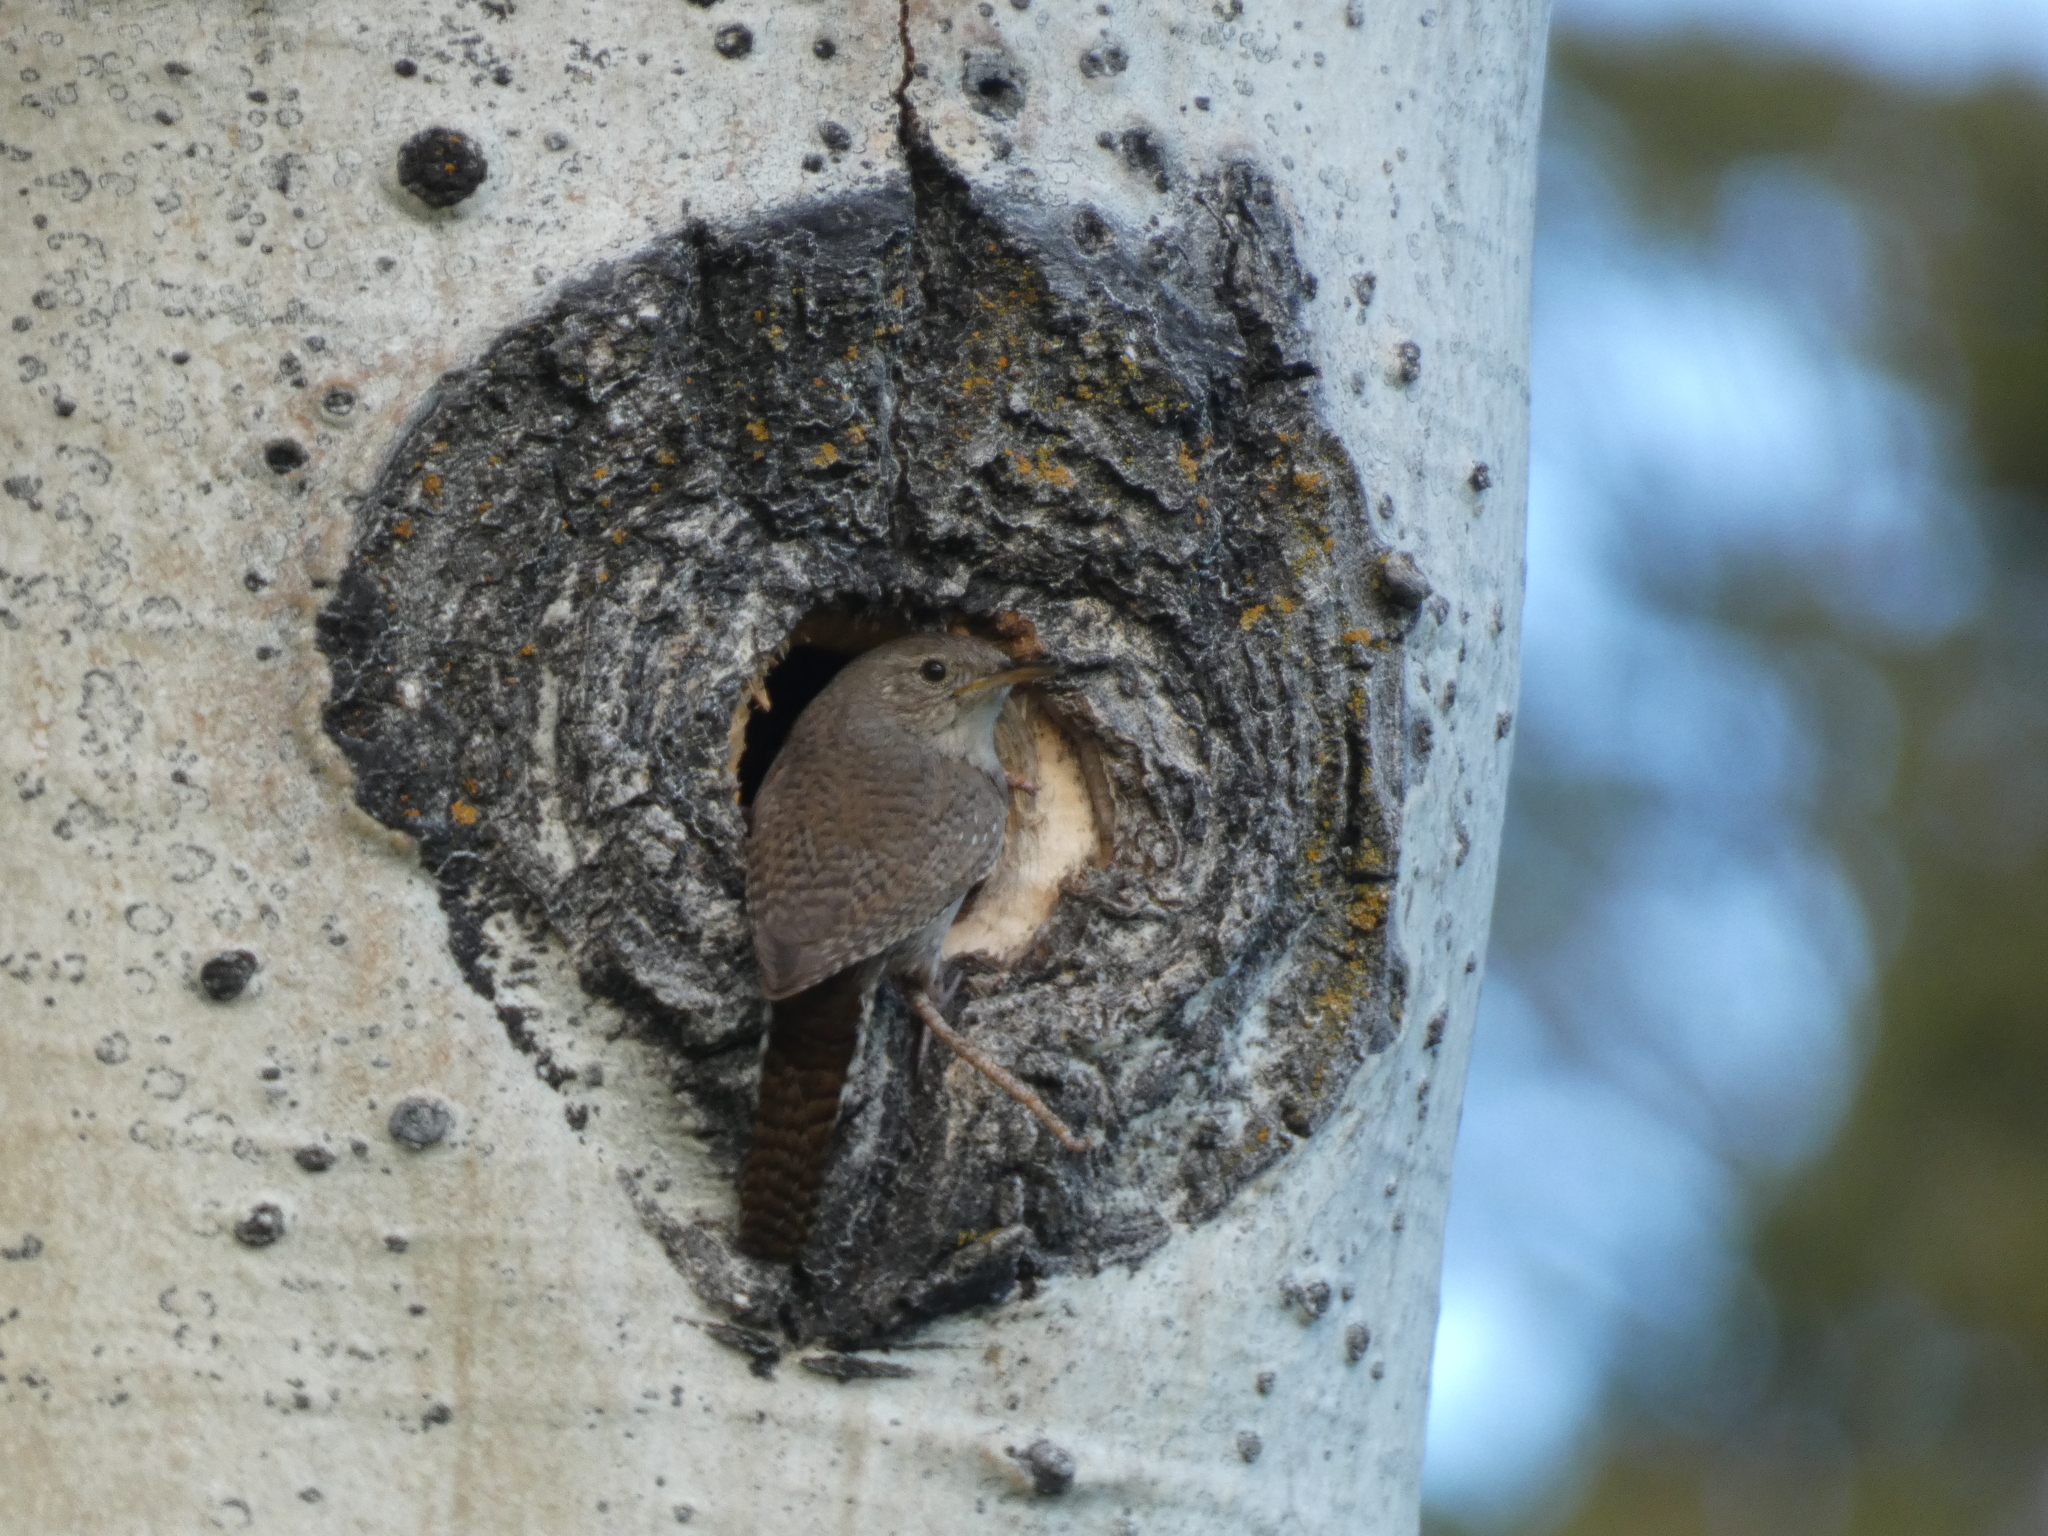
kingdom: Animalia
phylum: Chordata
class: Aves
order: Passeriformes
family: Troglodytidae
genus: Troglodytes
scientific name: Troglodytes aedon
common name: House wren
